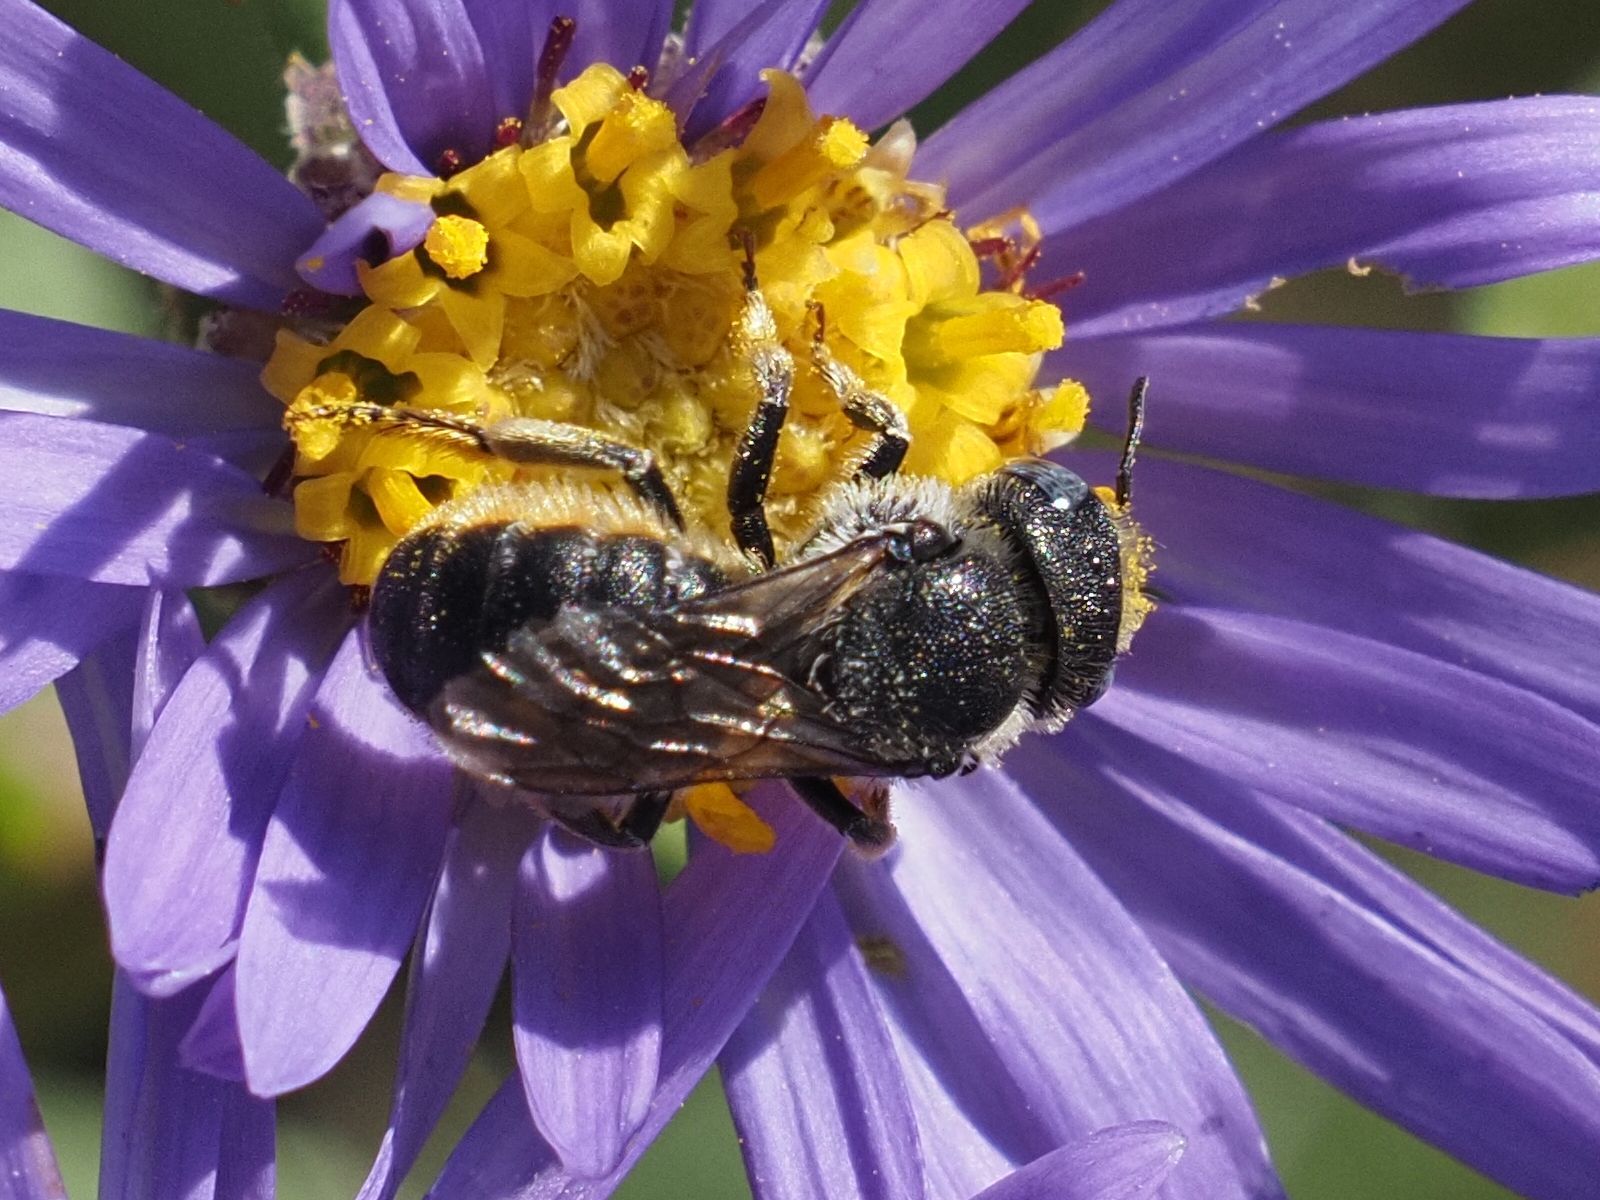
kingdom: Animalia
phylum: Arthropoda
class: Insecta
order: Hymenoptera
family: Megachilidae
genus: Osmia
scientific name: Osmia spinulosa
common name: Spined mason bee
